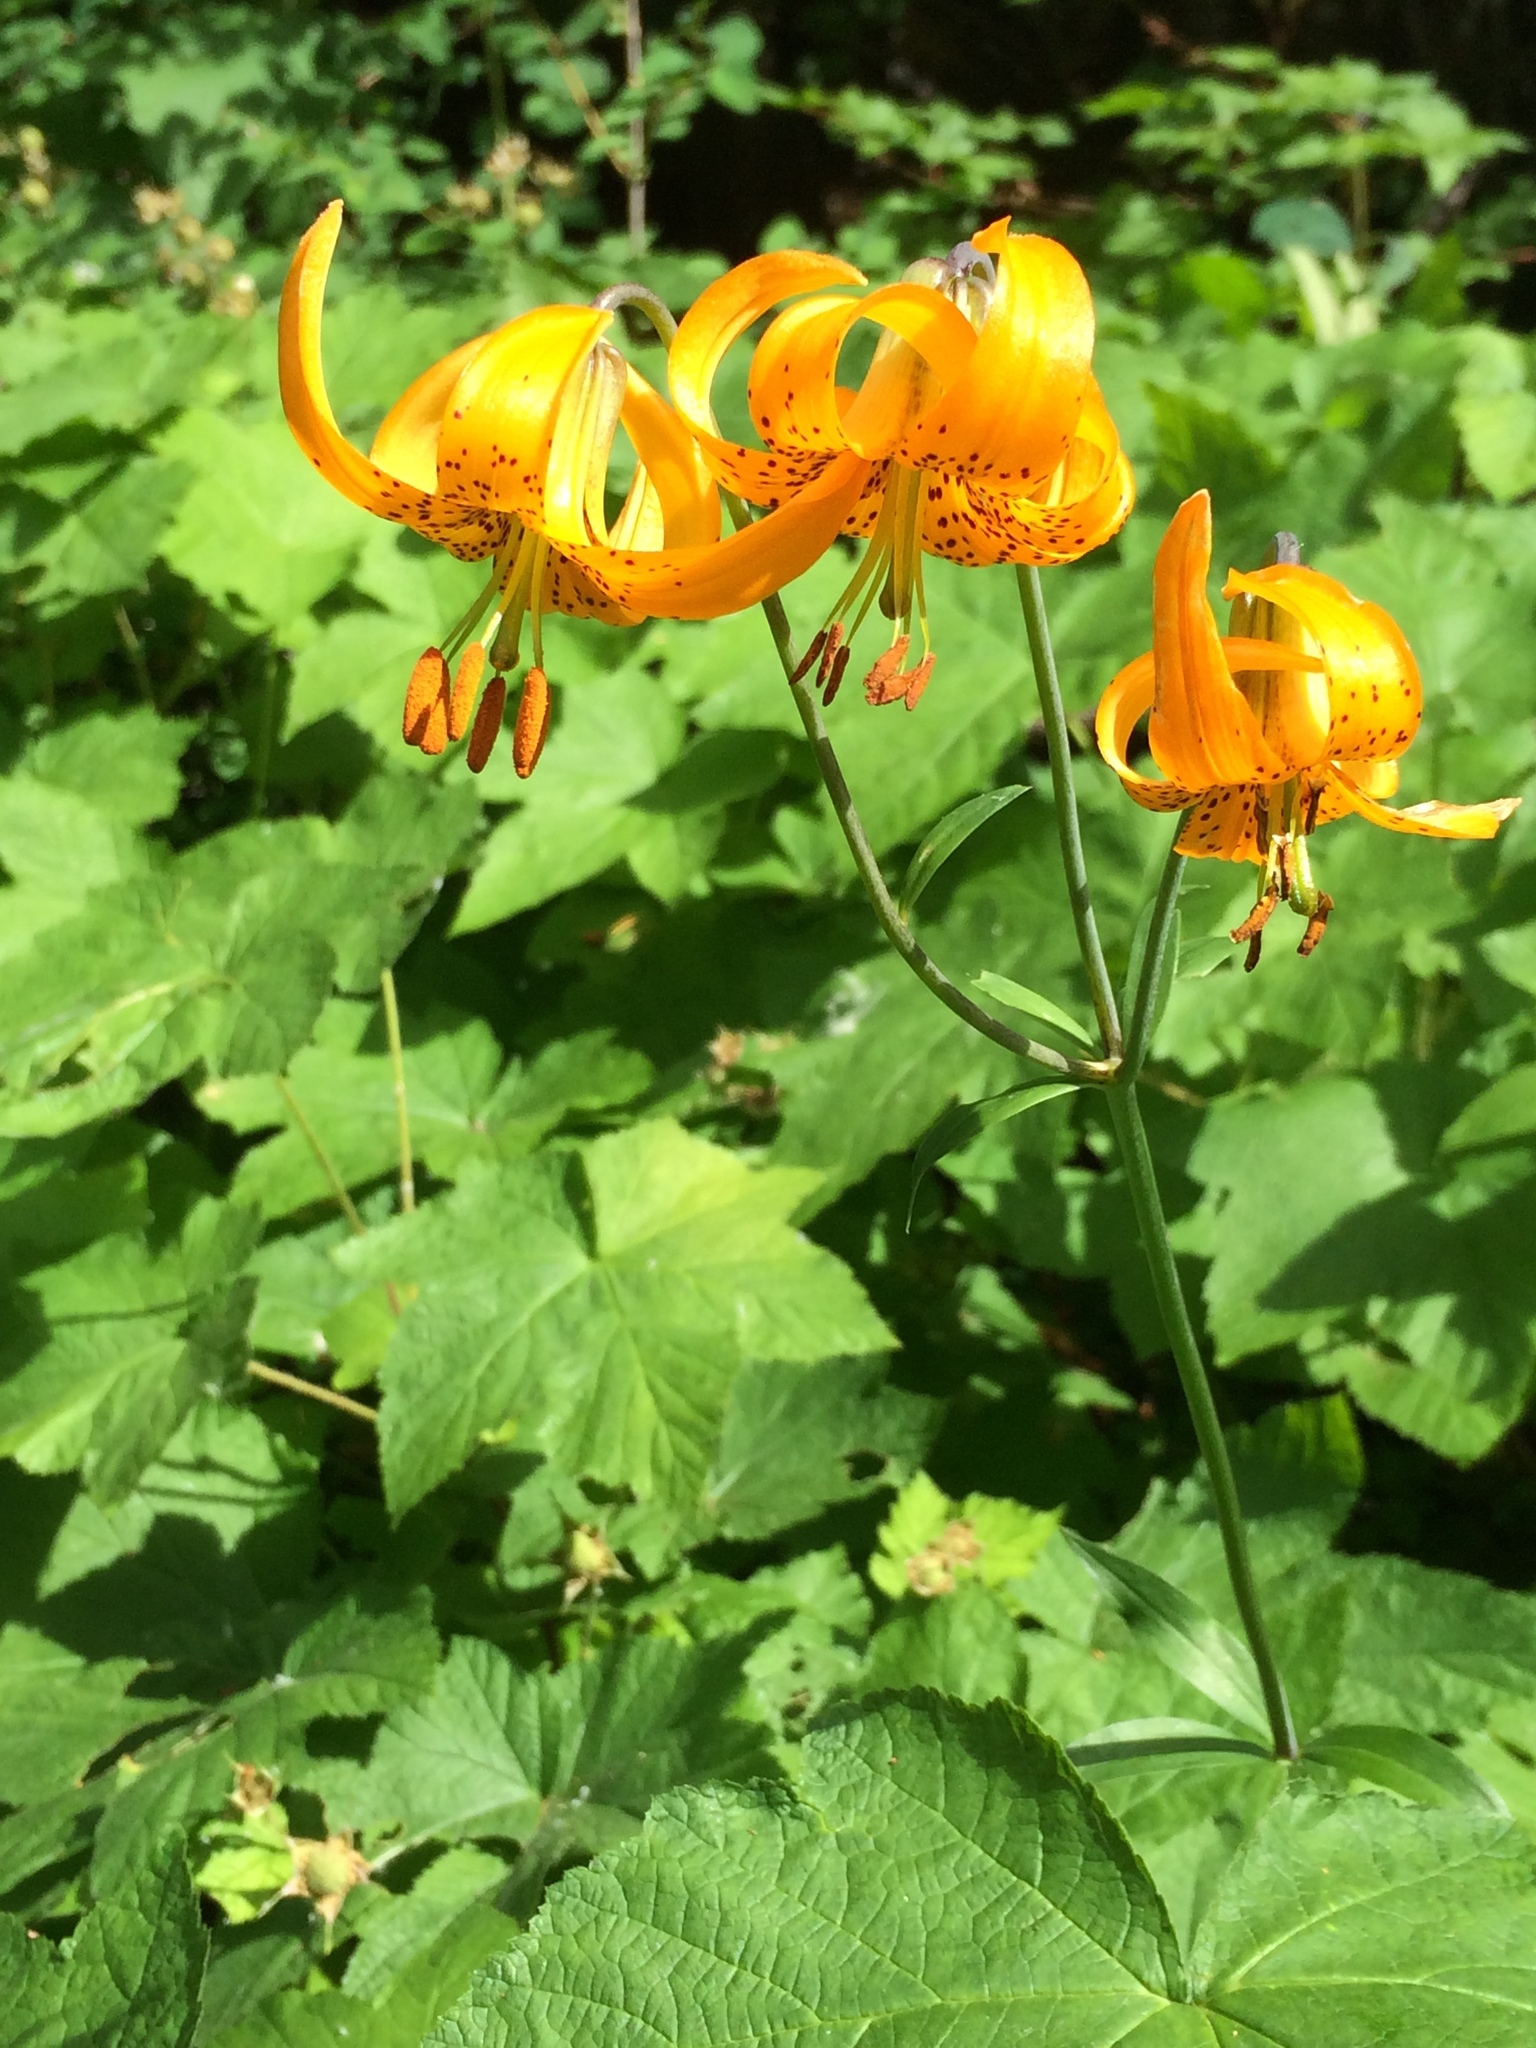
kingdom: Plantae
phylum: Tracheophyta
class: Liliopsida
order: Liliales
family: Liliaceae
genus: Lilium
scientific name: Lilium columbianum
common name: Columbia lily
